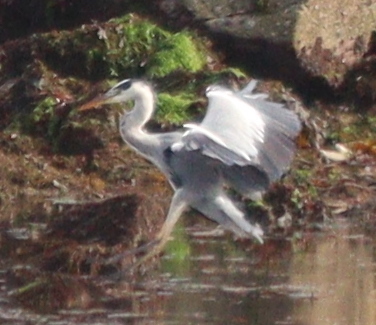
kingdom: Animalia
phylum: Chordata
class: Aves
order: Pelecaniformes
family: Ardeidae
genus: Ardea
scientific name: Ardea cinerea
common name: Grey heron
